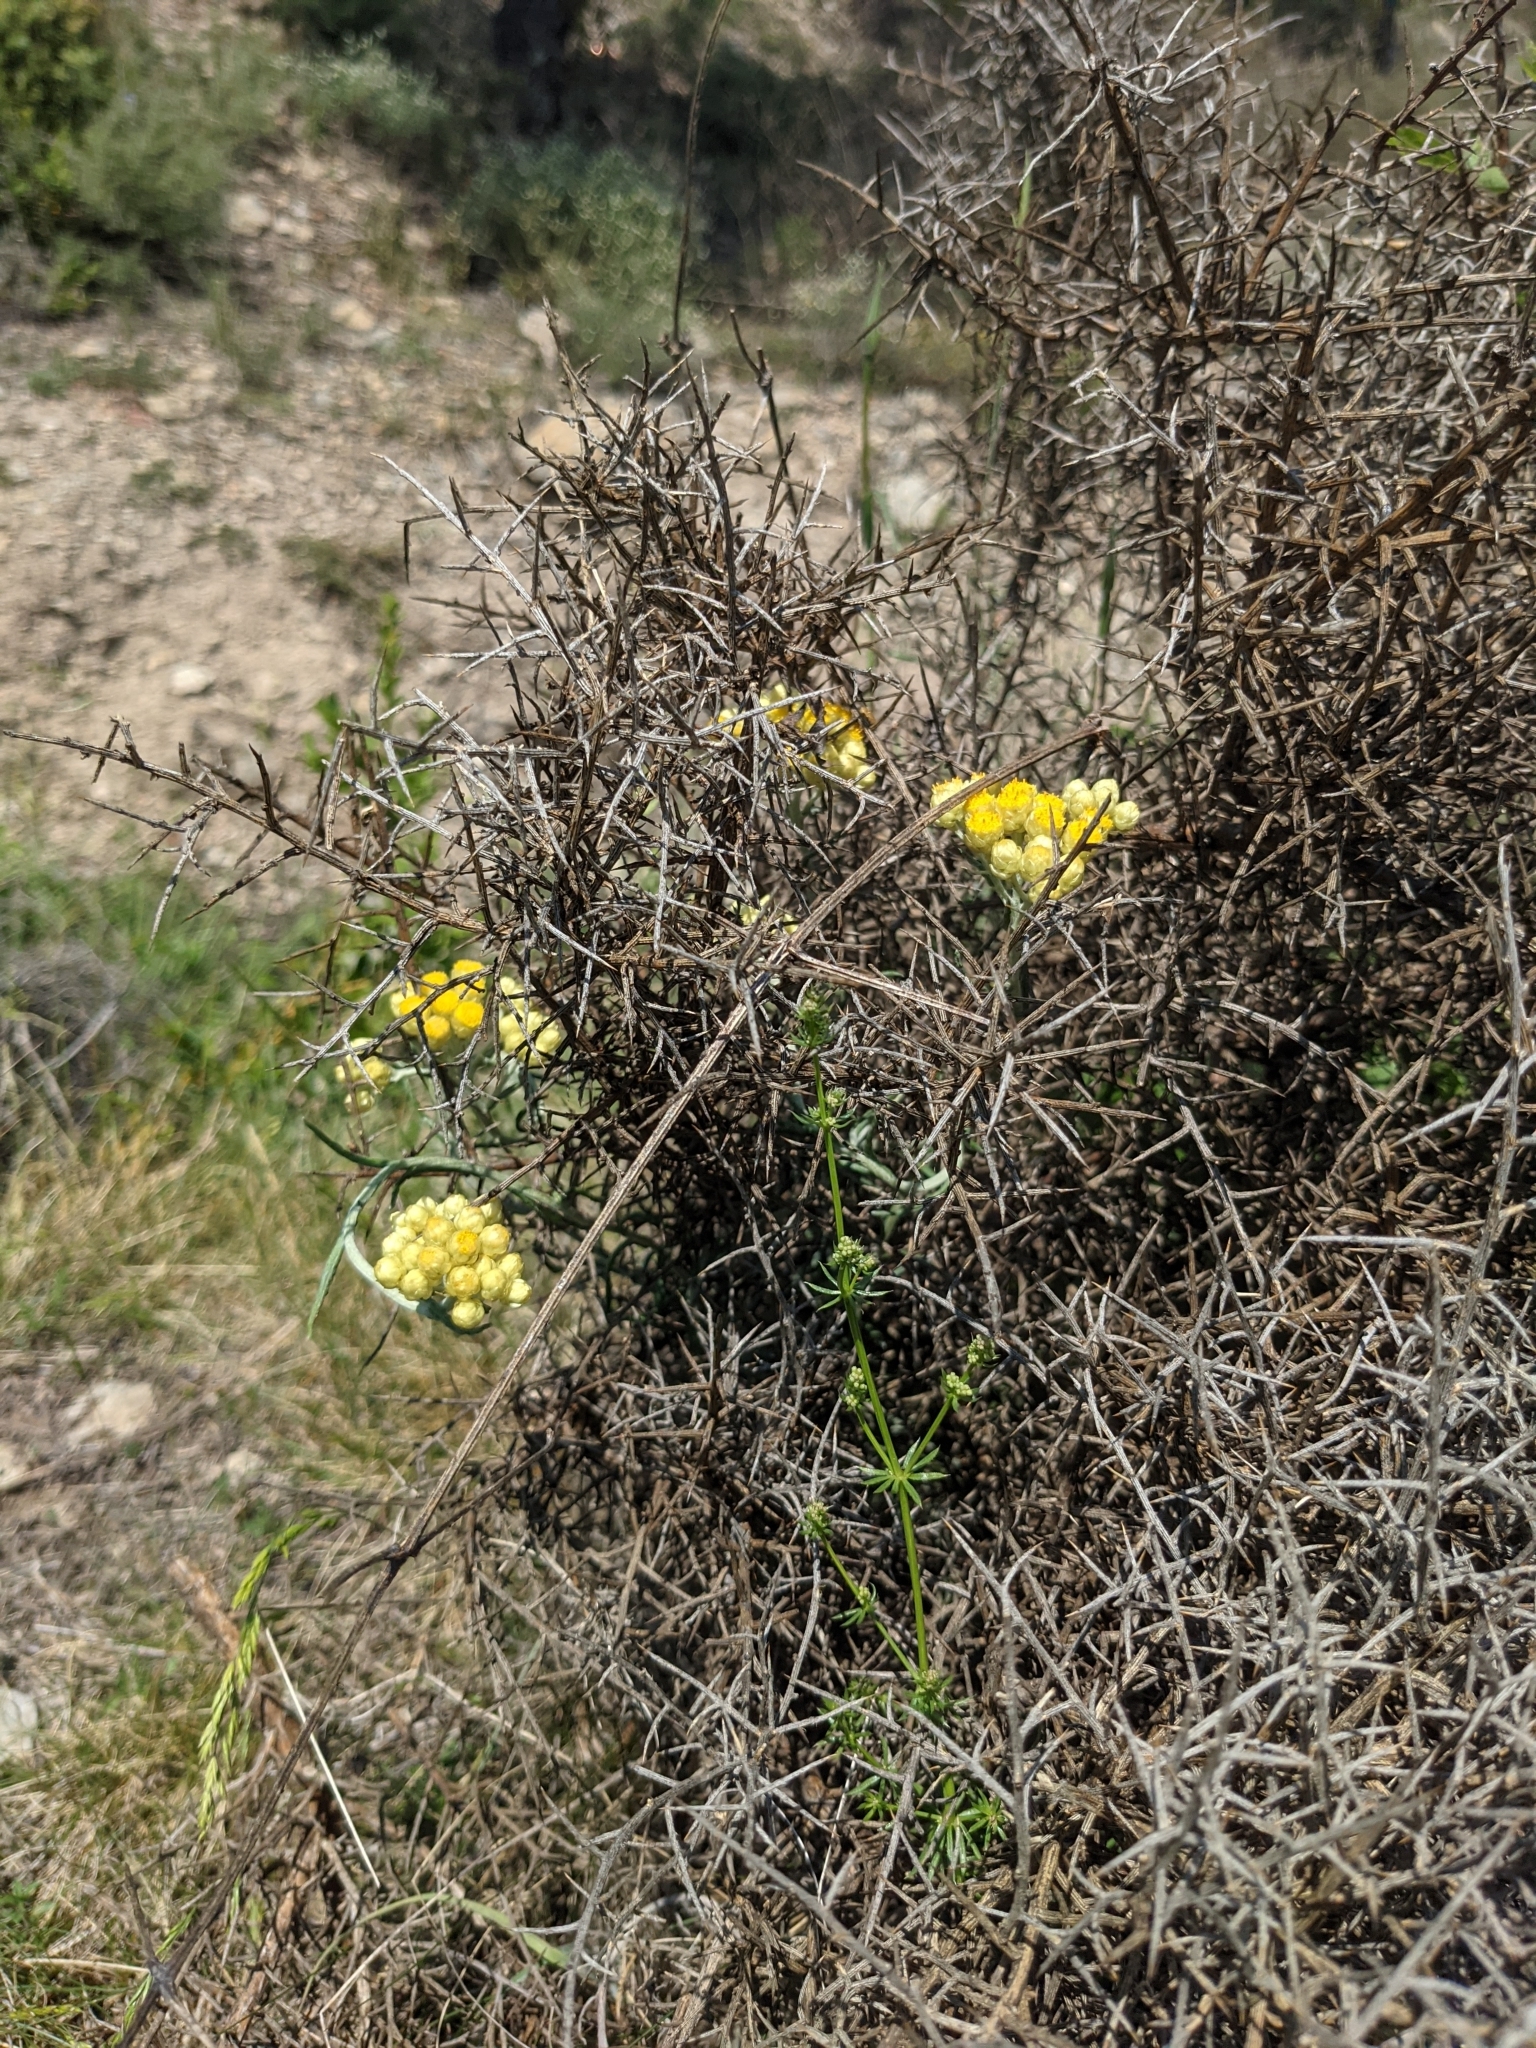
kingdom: Plantae
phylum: Tracheophyta
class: Magnoliopsida
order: Asterales
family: Asteraceae
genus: Helichrysum
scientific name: Helichrysum stoechas
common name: Goldilocks
